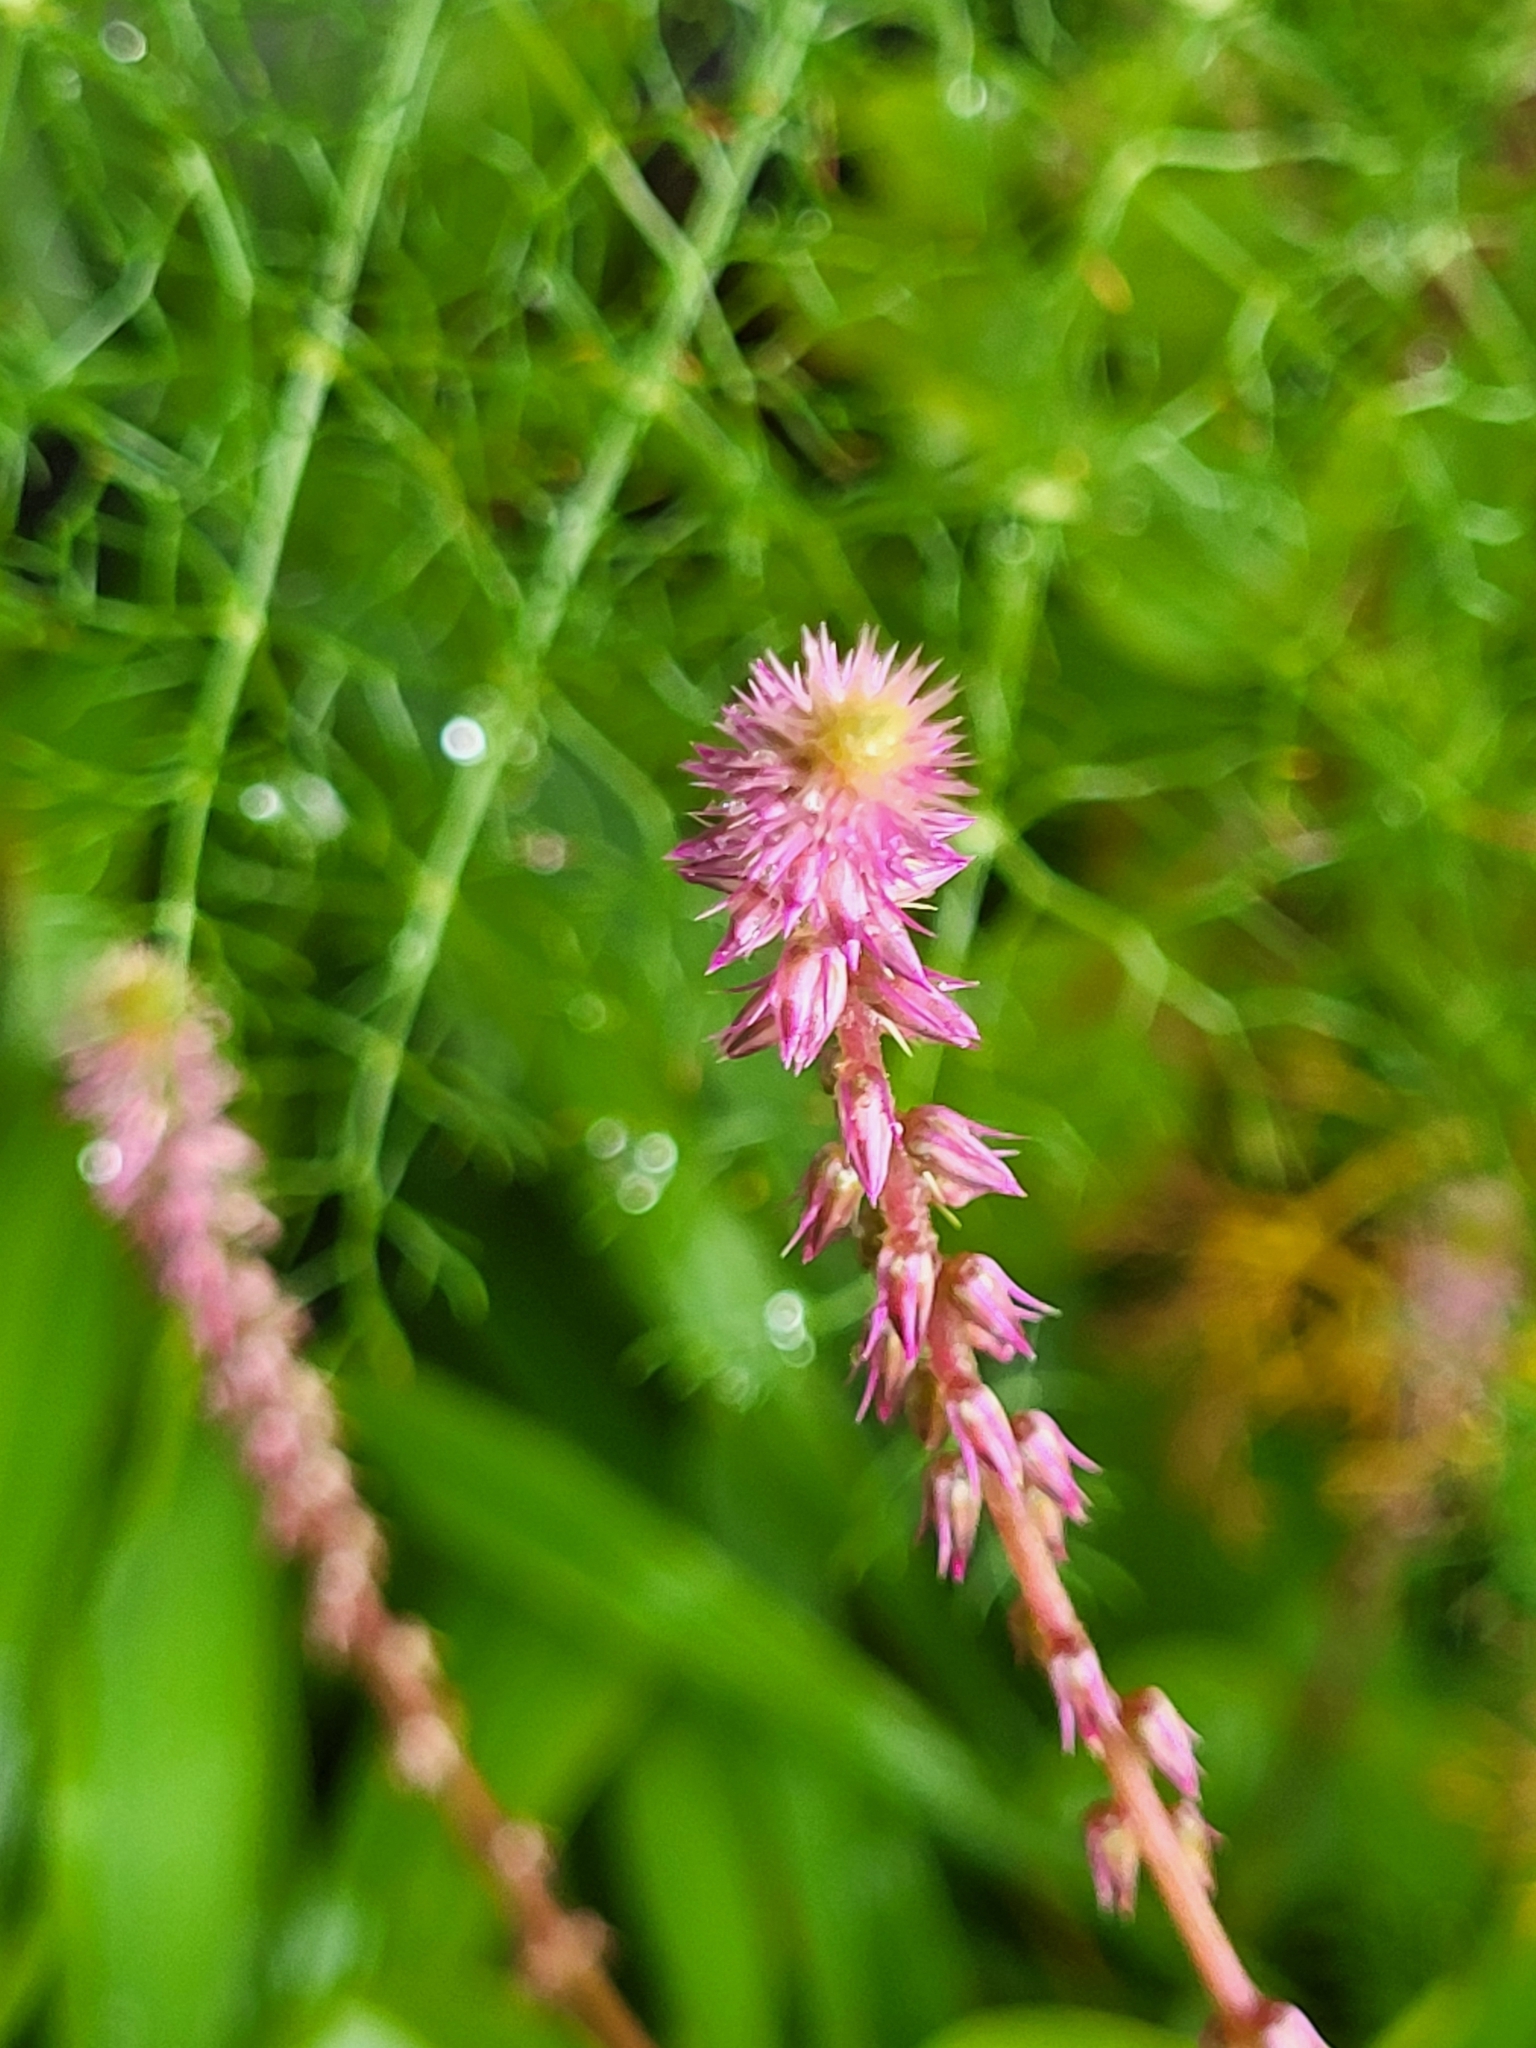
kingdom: Plantae
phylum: Tracheophyta
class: Magnoliopsida
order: Caryophyllales
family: Amaranthaceae
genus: Achyranthes
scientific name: Achyranthes aspera
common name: Devil's horsewhip
